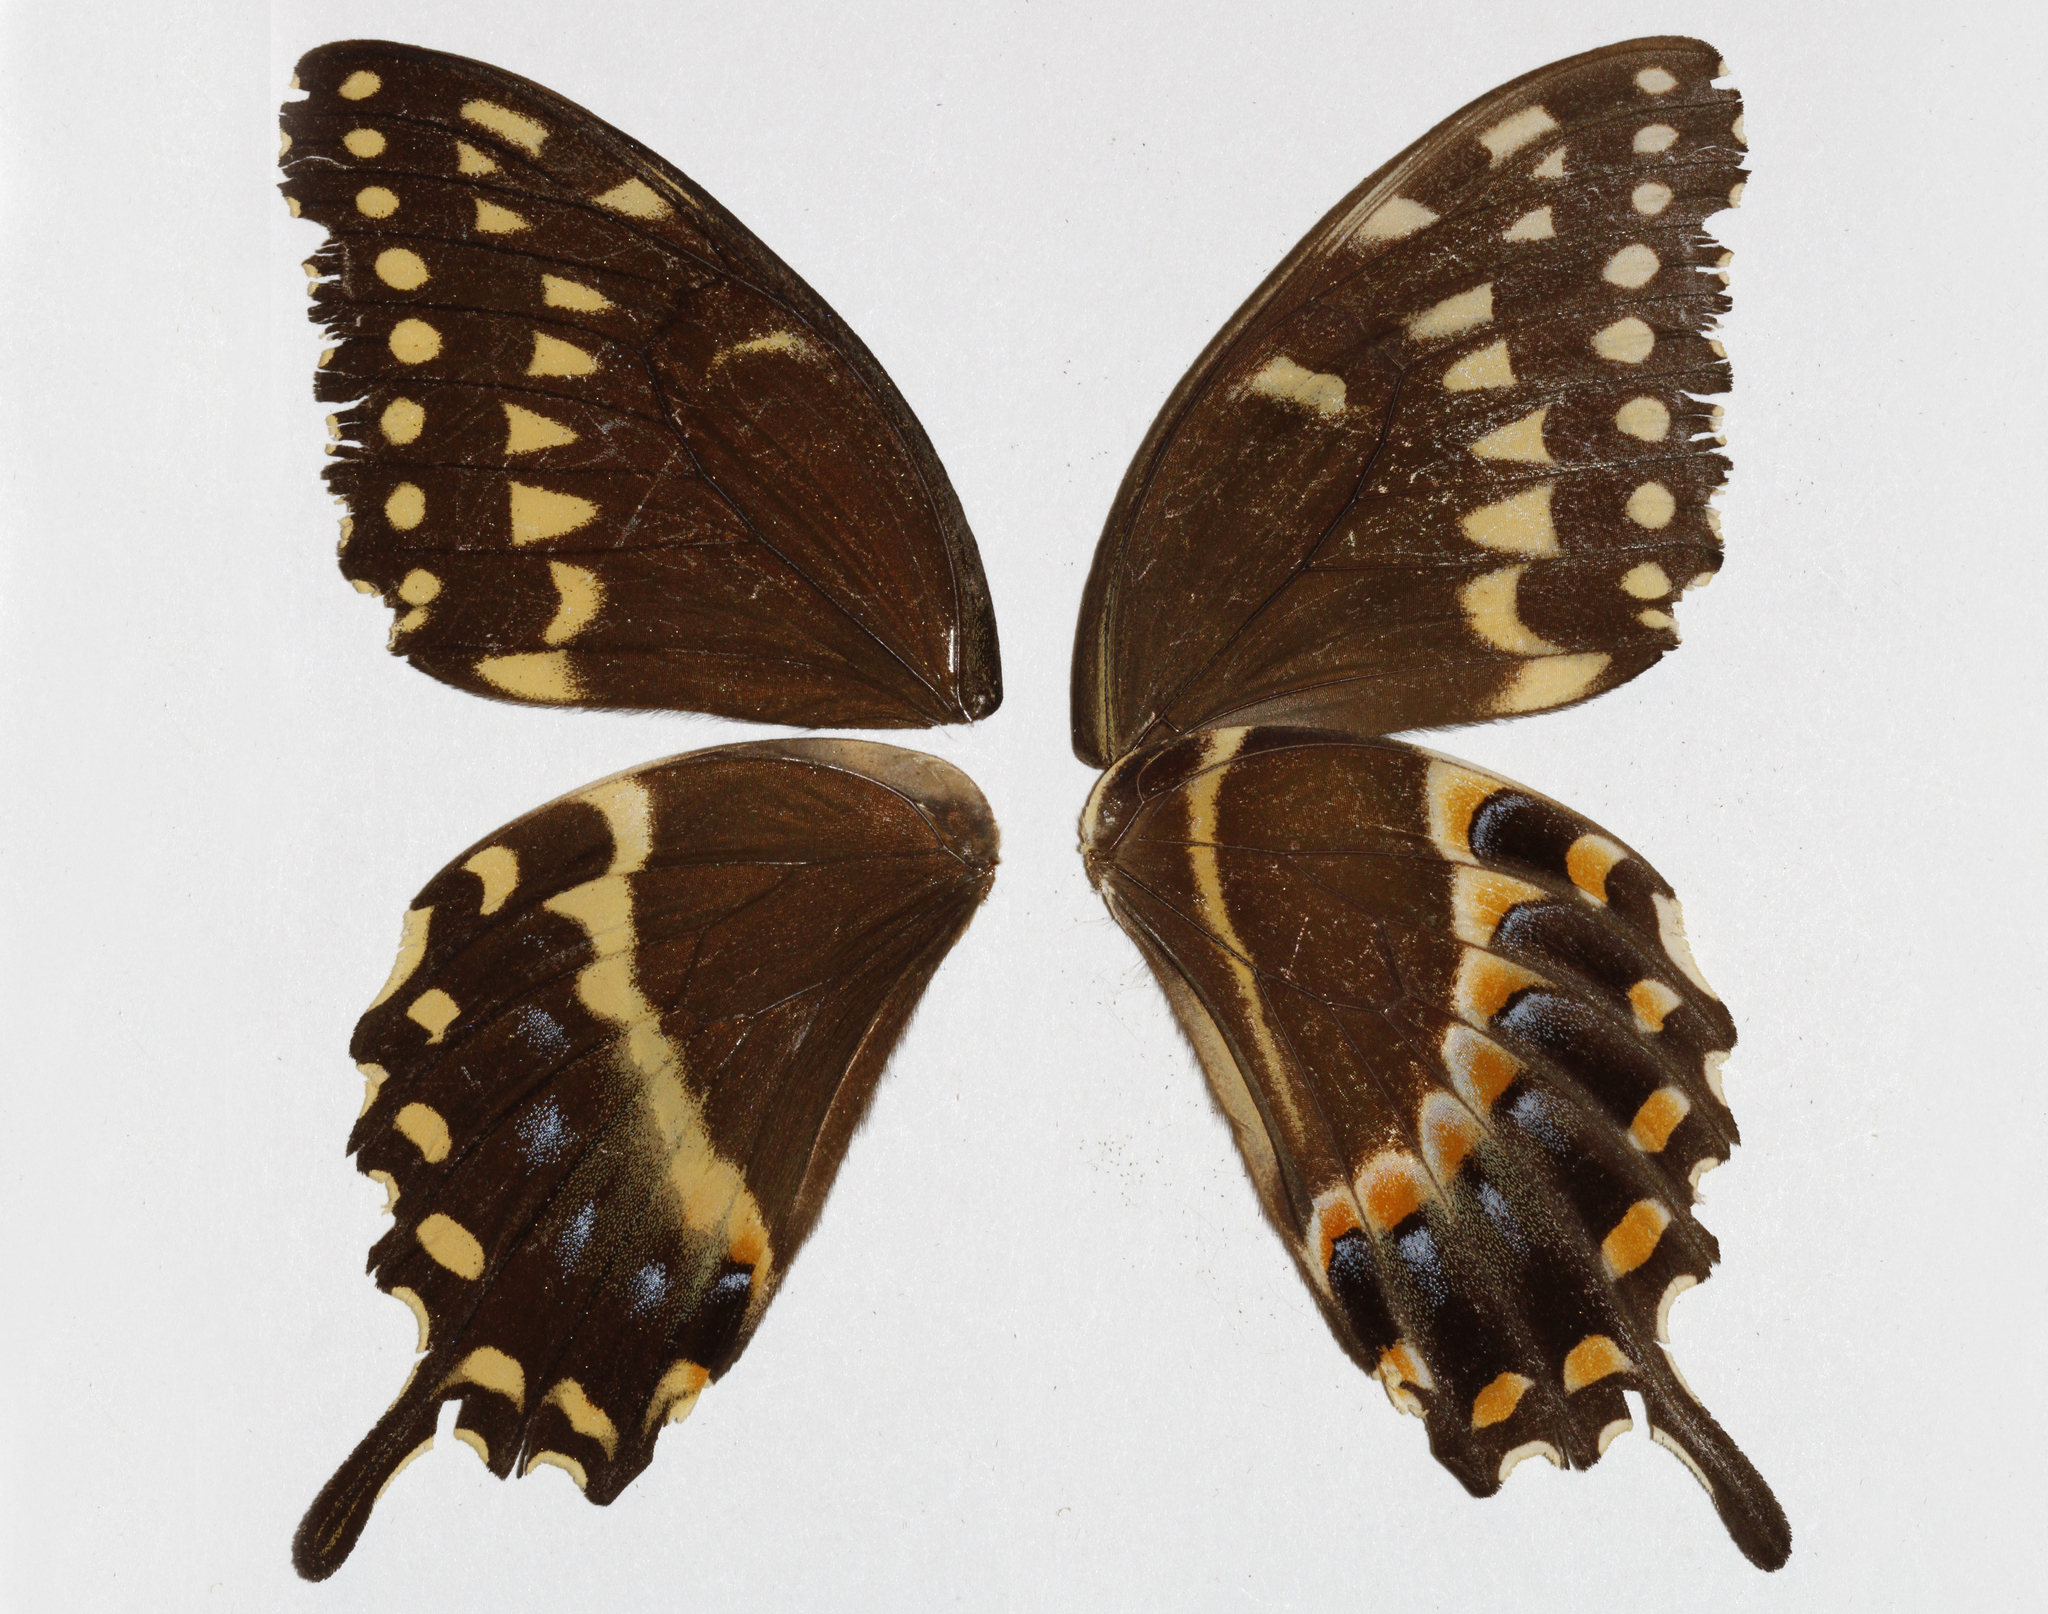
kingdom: Animalia
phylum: Arthropoda
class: Insecta
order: Lepidoptera
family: Papilionidae
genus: Papilio
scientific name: Papilio palamedes
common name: Palamedes swallowtail
